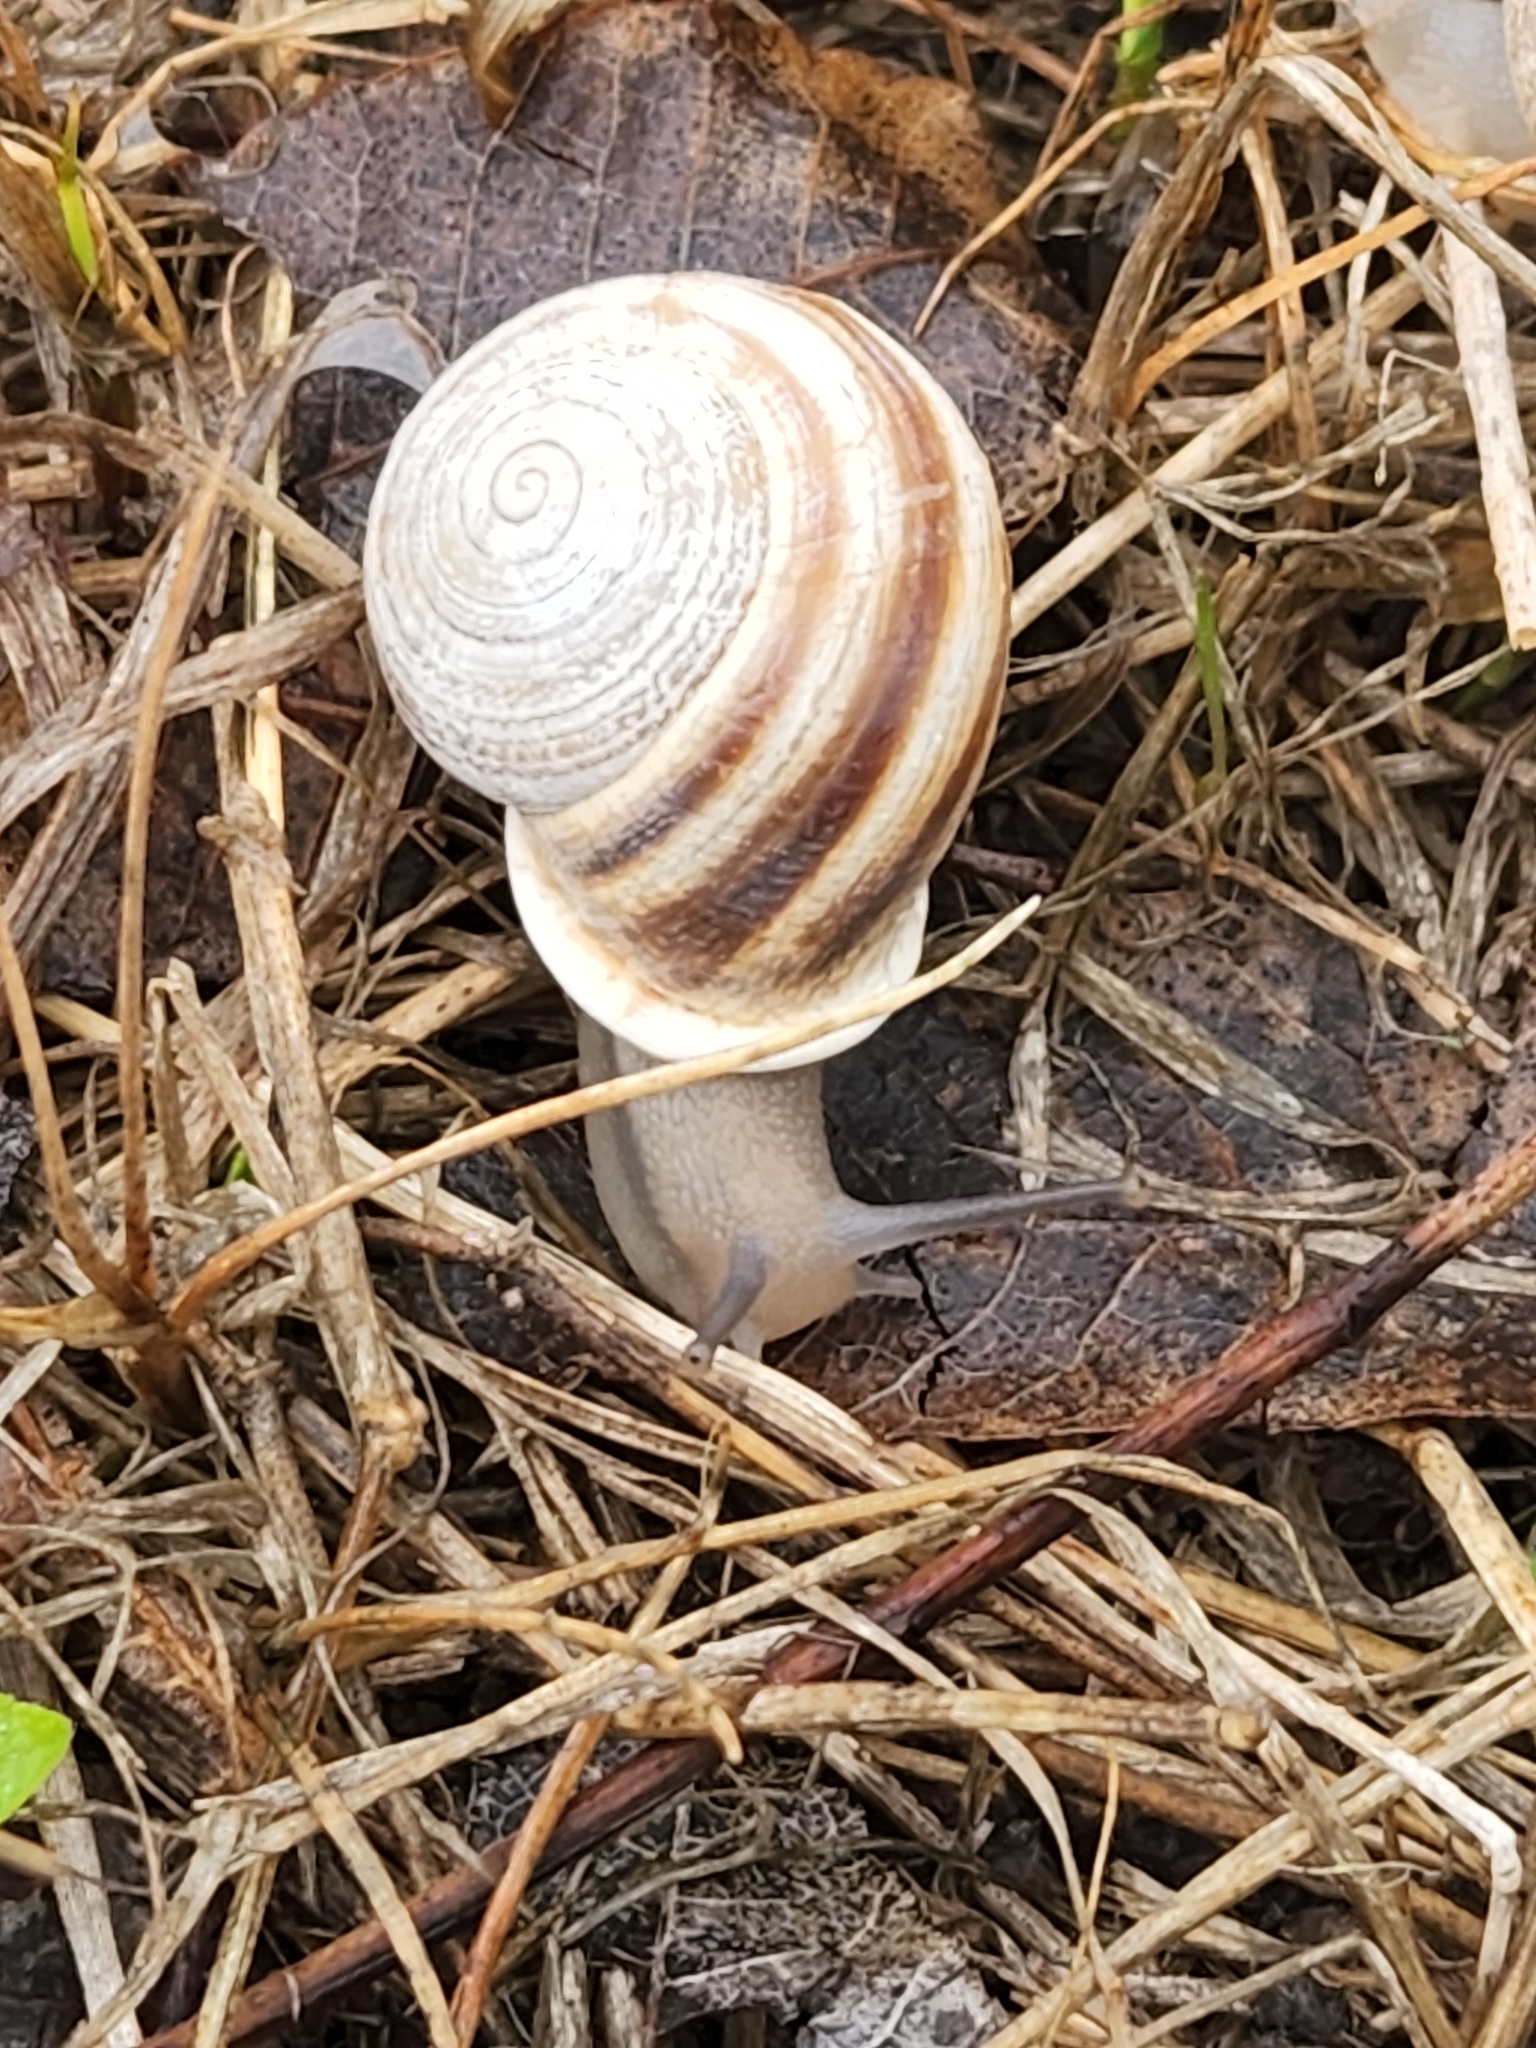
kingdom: Animalia
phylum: Mollusca
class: Gastropoda
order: Stylommatophora
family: Helicidae
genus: Otala
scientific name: Otala lactea
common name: Milk snail
